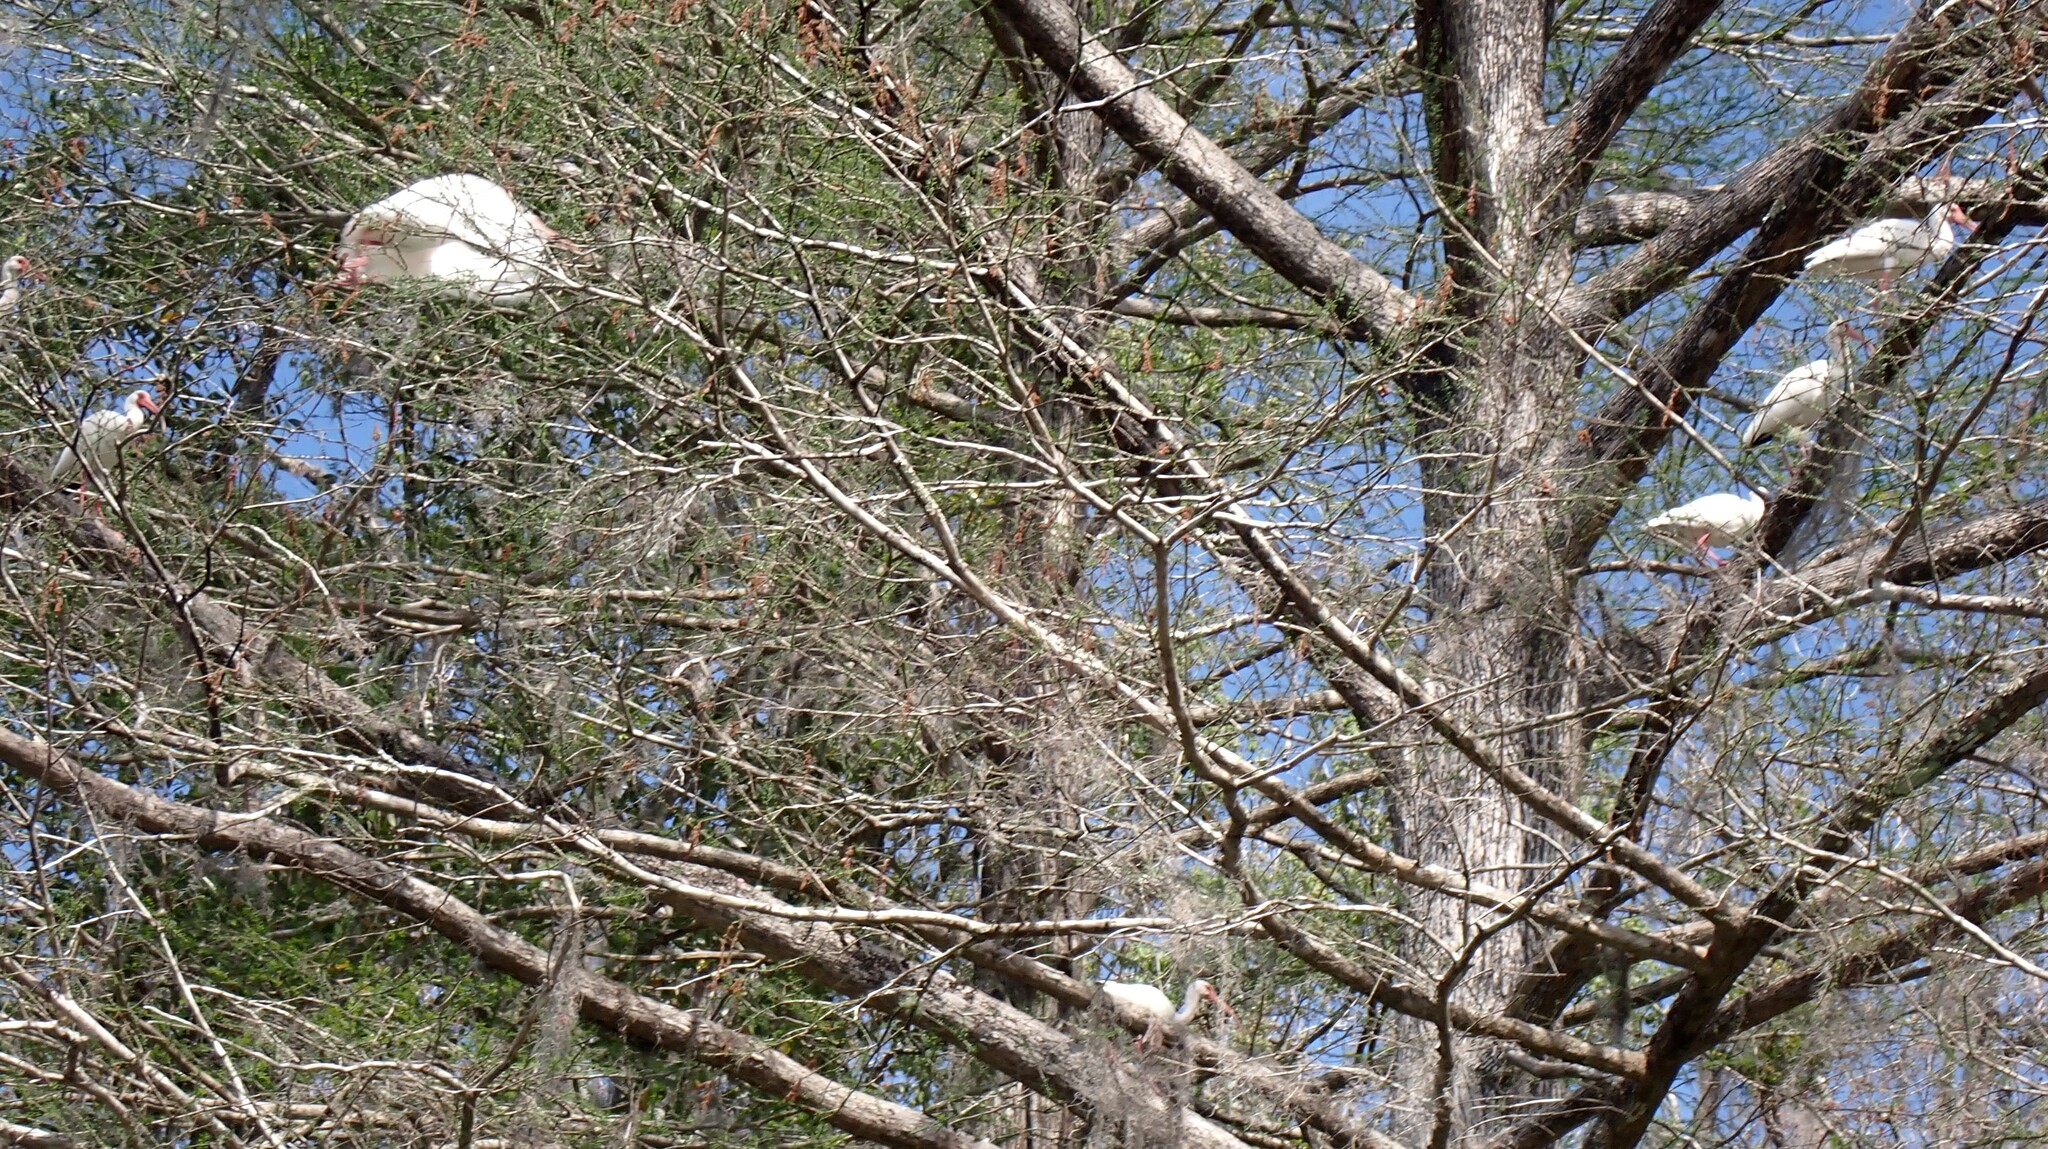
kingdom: Animalia
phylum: Chordata
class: Aves
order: Pelecaniformes
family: Threskiornithidae
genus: Eudocimus
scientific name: Eudocimus albus
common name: White ibis
